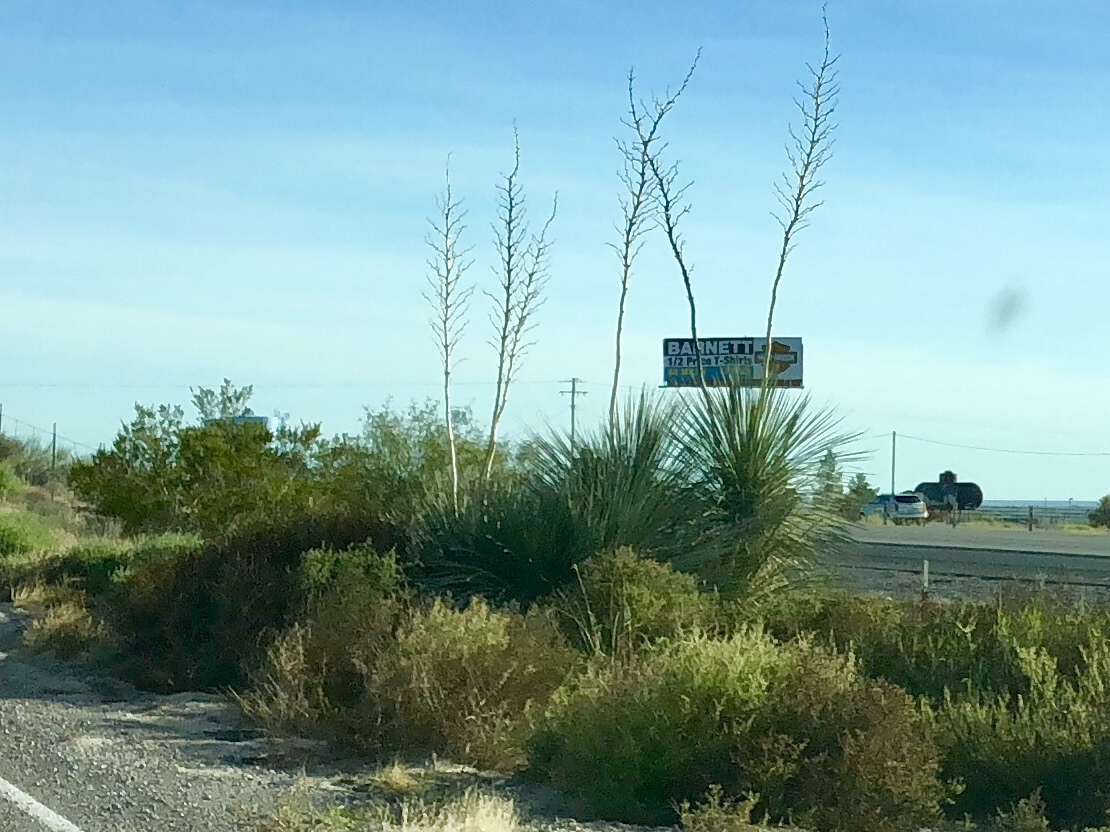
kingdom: Plantae
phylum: Tracheophyta
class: Liliopsida
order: Asparagales
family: Asparagaceae
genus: Yucca
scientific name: Yucca elata
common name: Palmella
